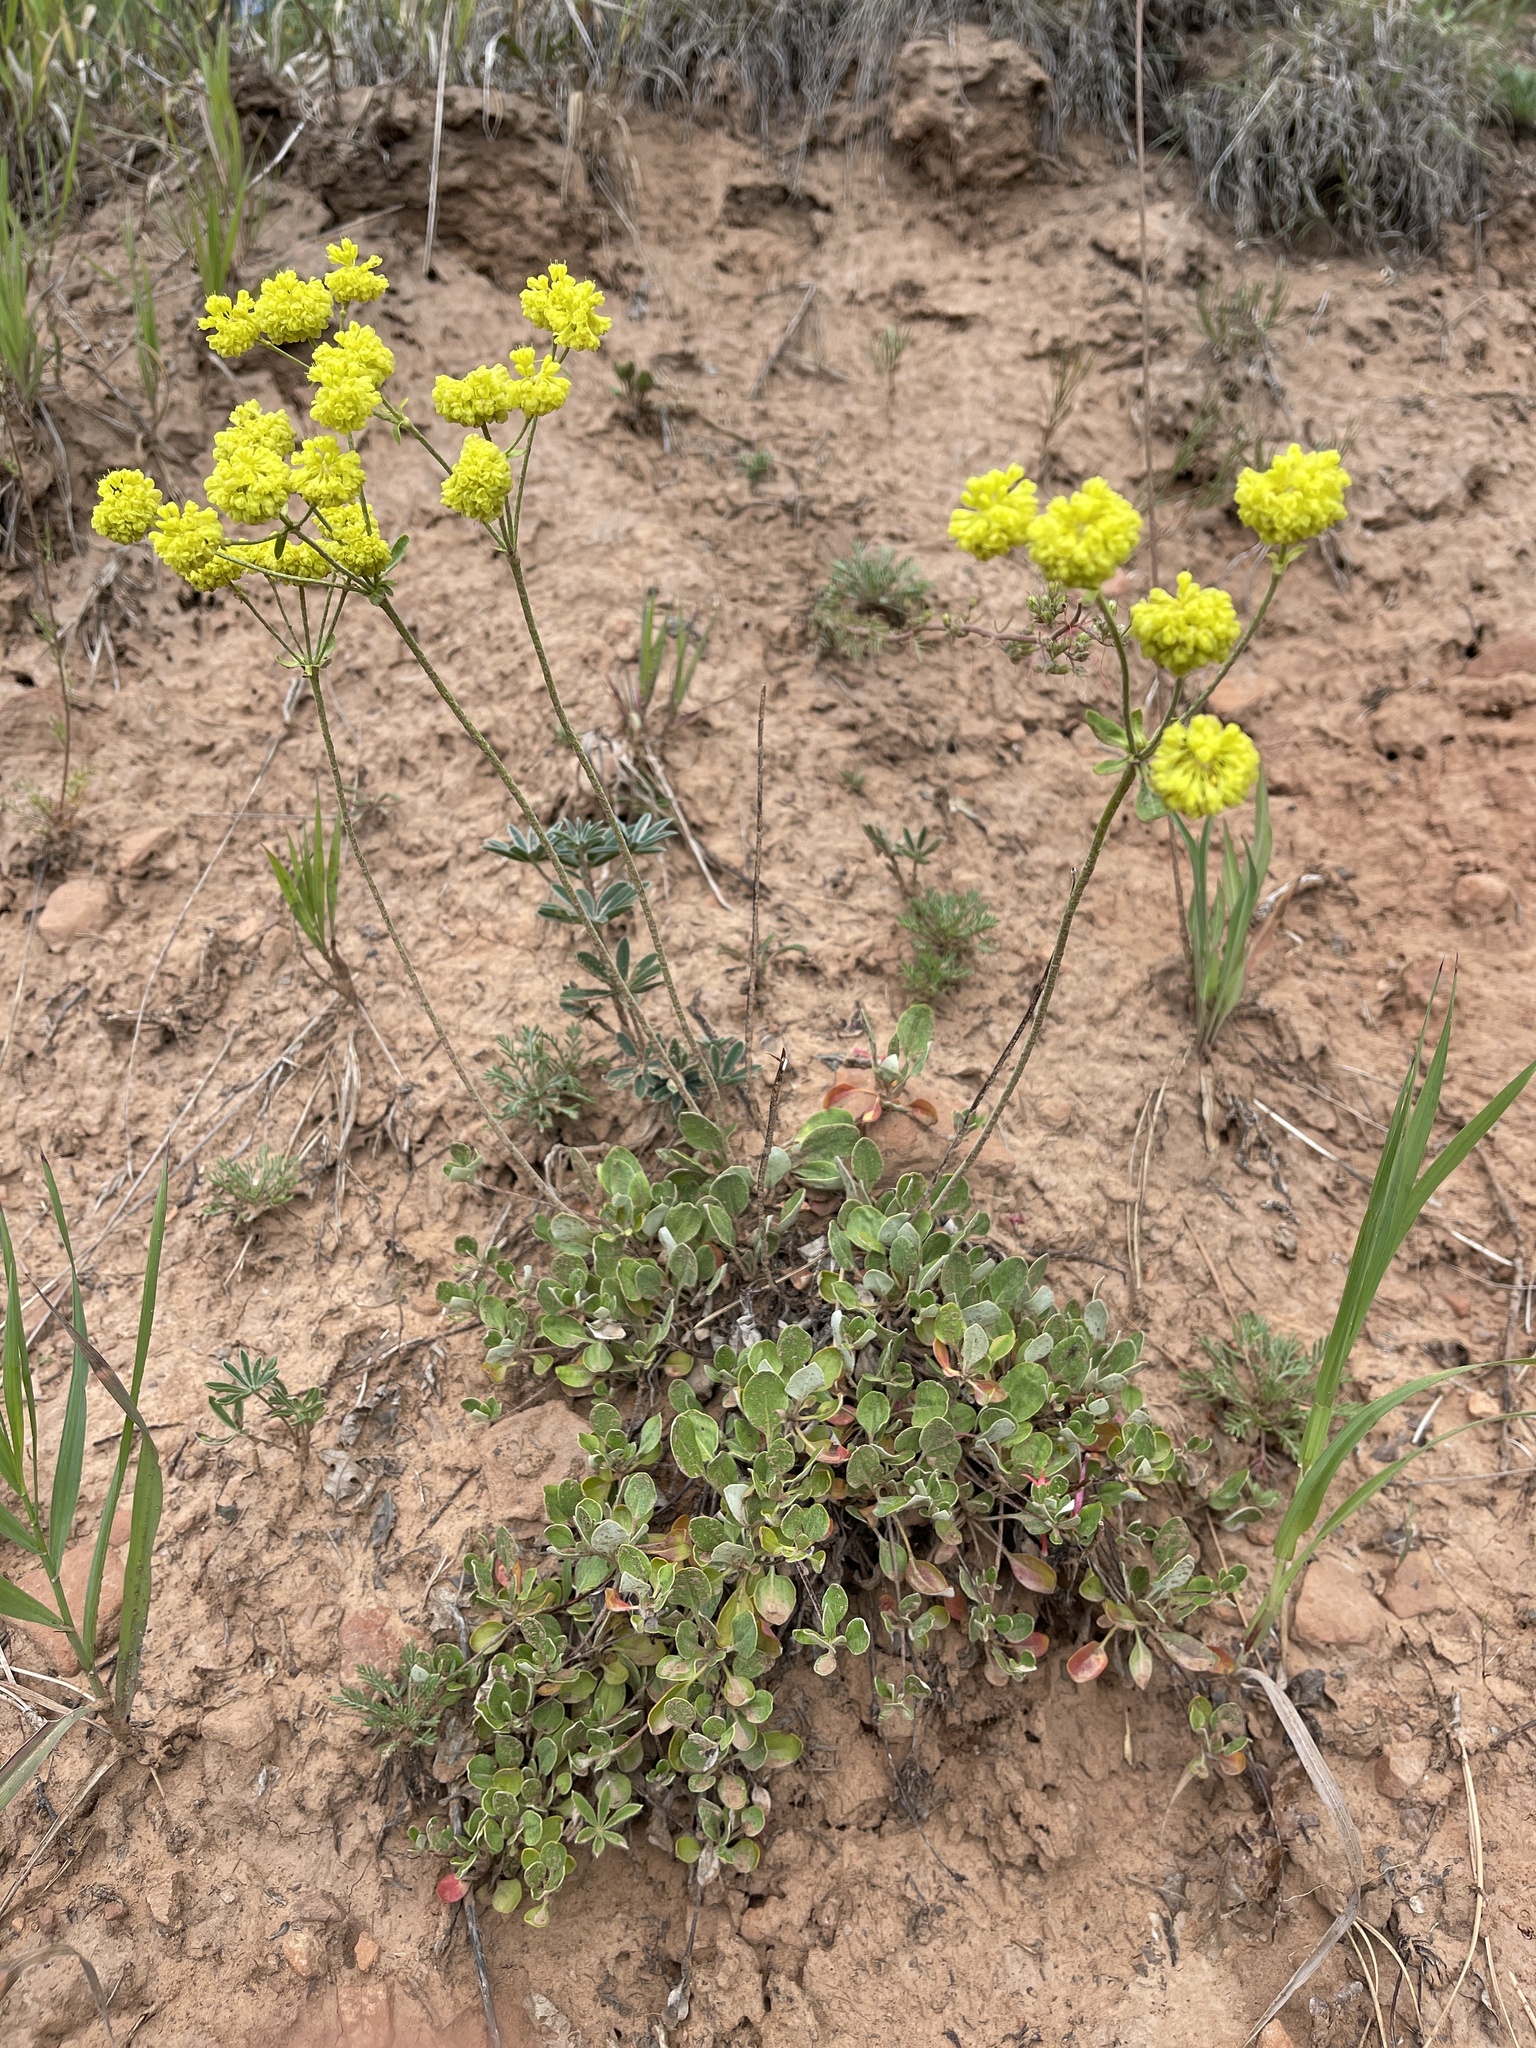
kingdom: Plantae
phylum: Tracheophyta
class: Magnoliopsida
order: Caryophyllales
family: Polygonaceae
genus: Eriogonum
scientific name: Eriogonum umbellatum
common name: Sulfur-buckwheat
